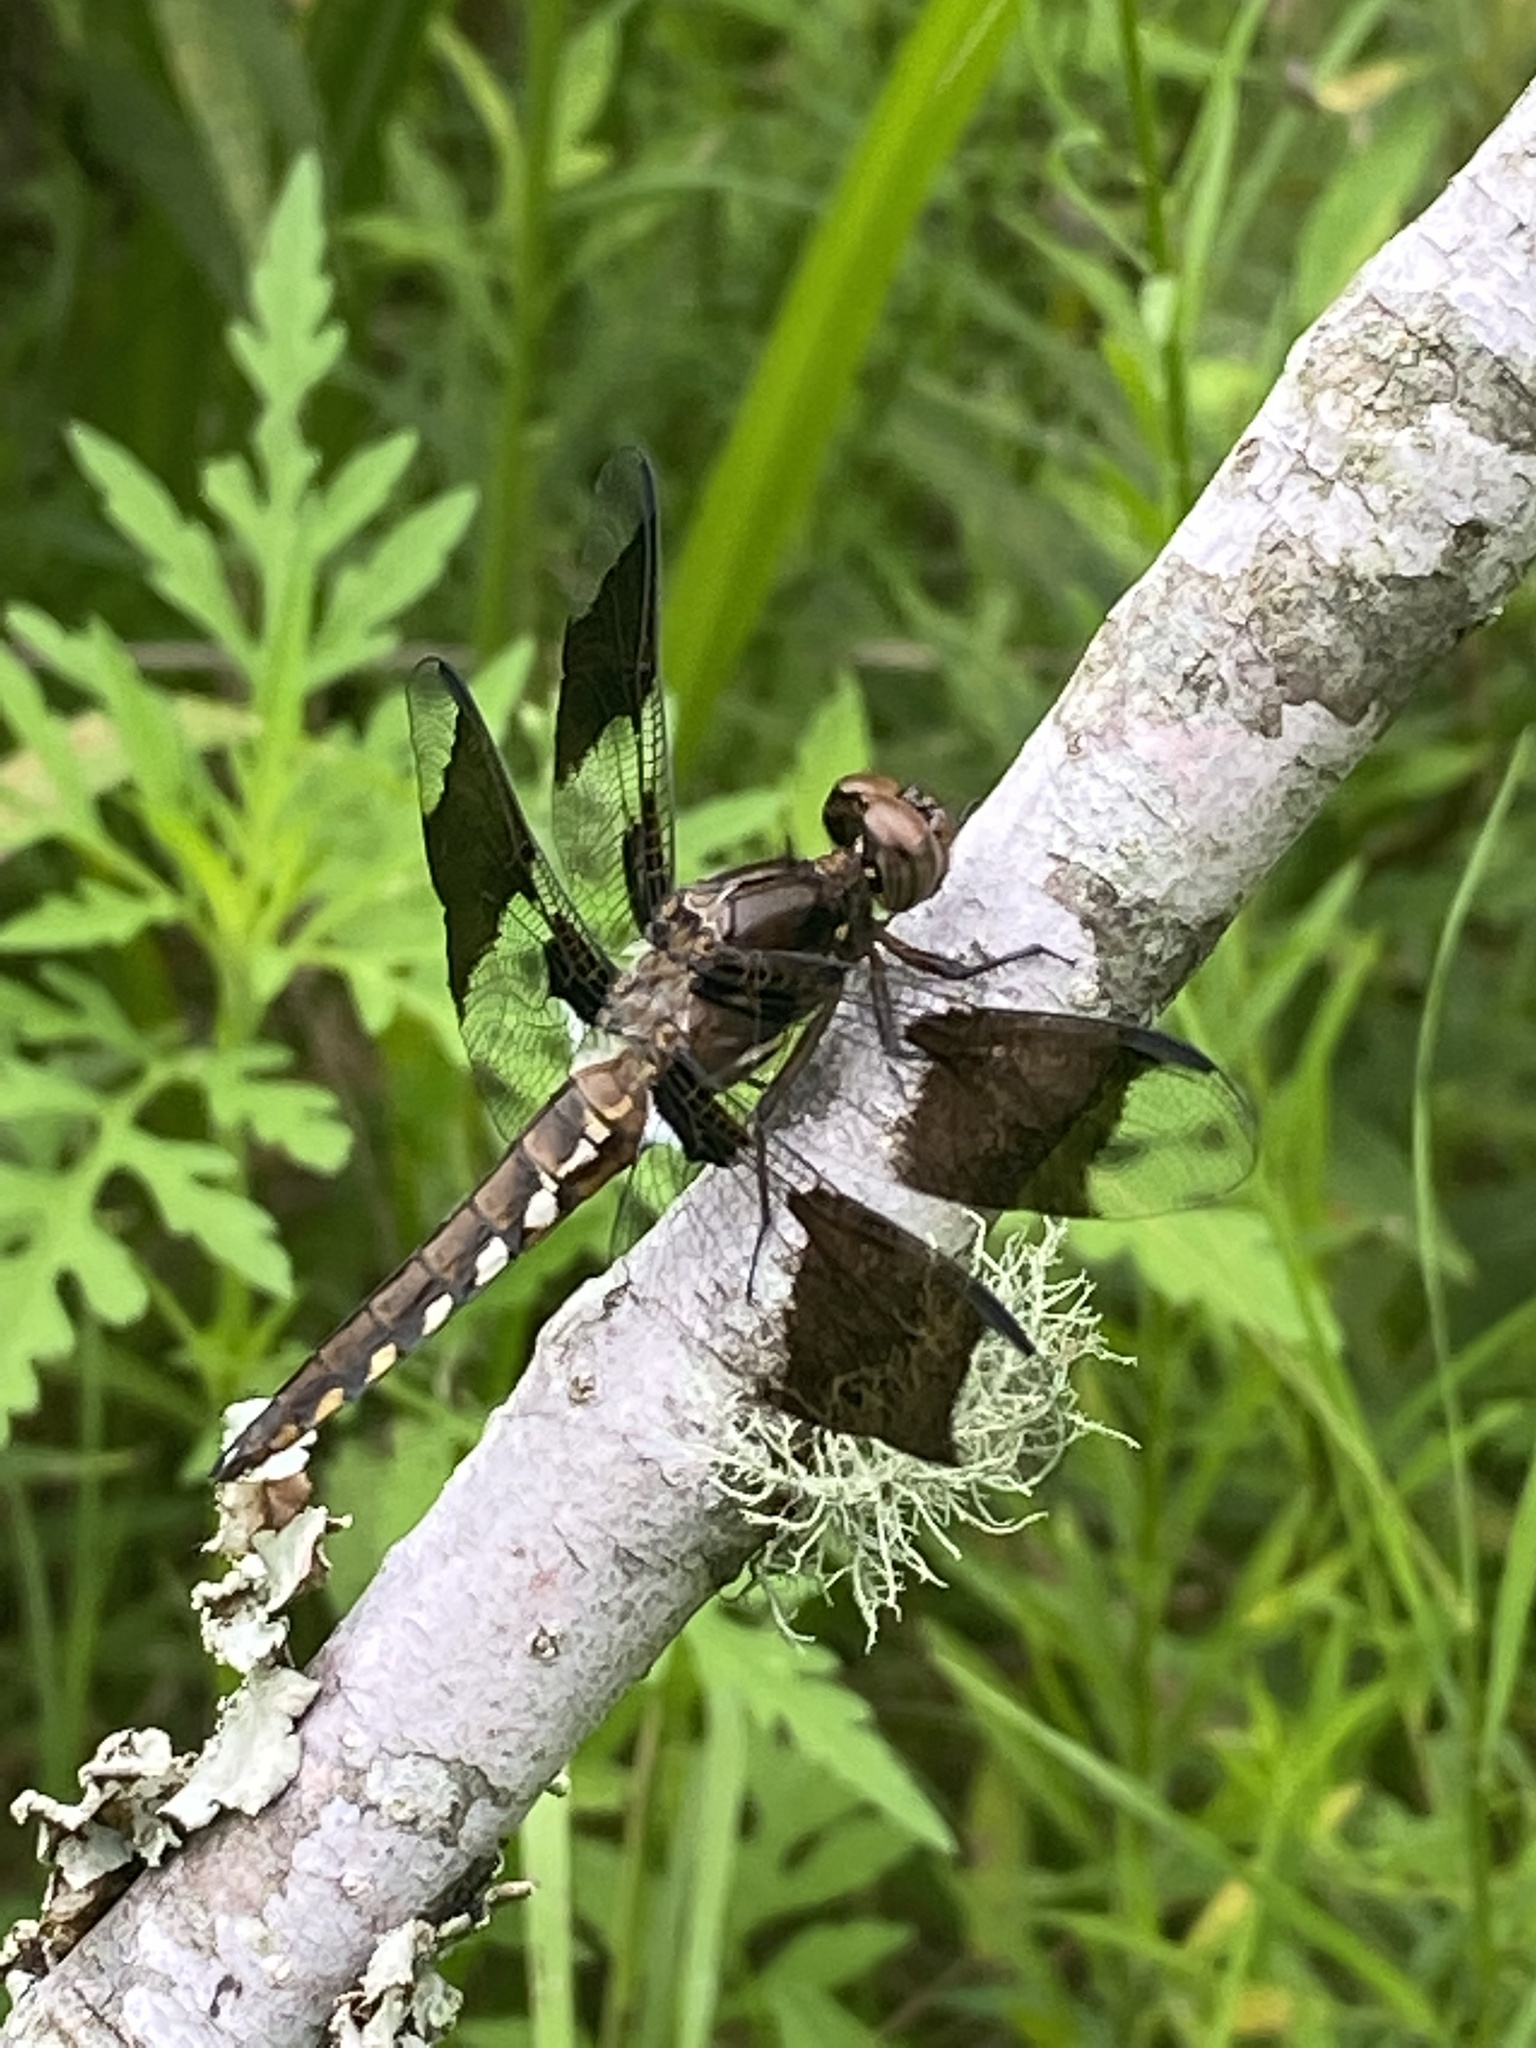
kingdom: Animalia
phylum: Arthropoda
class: Insecta
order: Odonata
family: Libellulidae
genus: Plathemis
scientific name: Plathemis lydia
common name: Common whitetail
